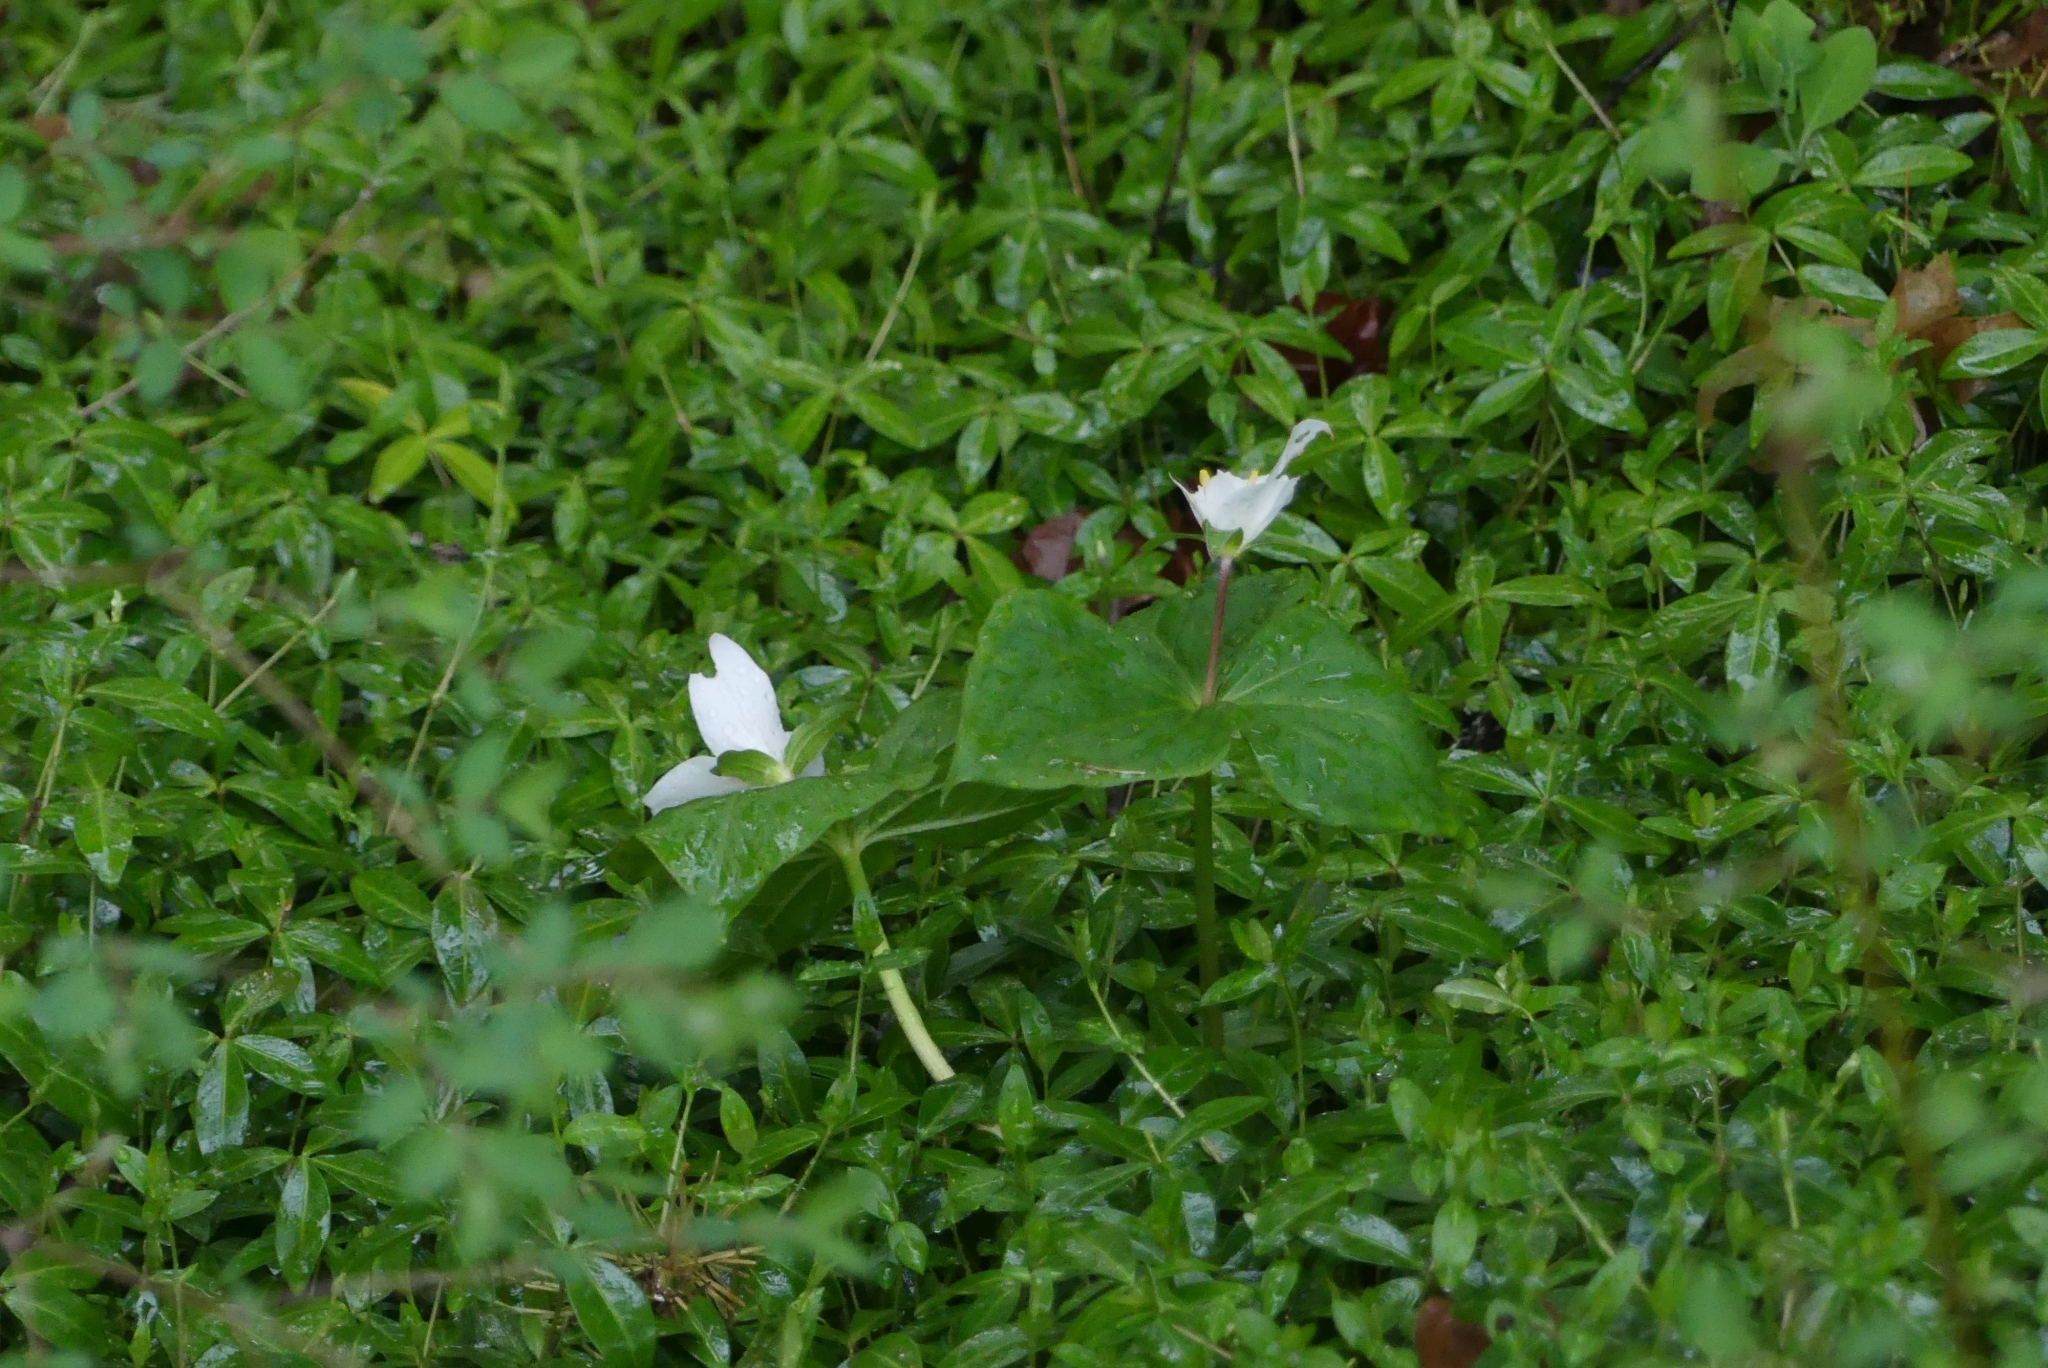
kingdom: Plantae
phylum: Tracheophyta
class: Liliopsida
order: Liliales
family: Melanthiaceae
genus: Trillium
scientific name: Trillium ovatum
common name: Pacific trillium
